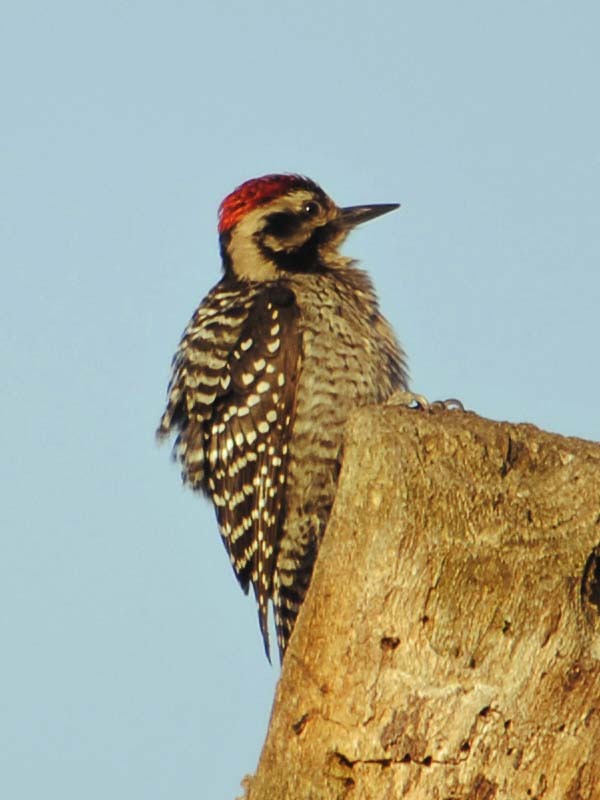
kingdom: Animalia
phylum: Chordata
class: Aves
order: Piciformes
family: Picidae
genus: Dryobates
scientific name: Dryobates scalaris
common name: Ladder-backed woodpecker
